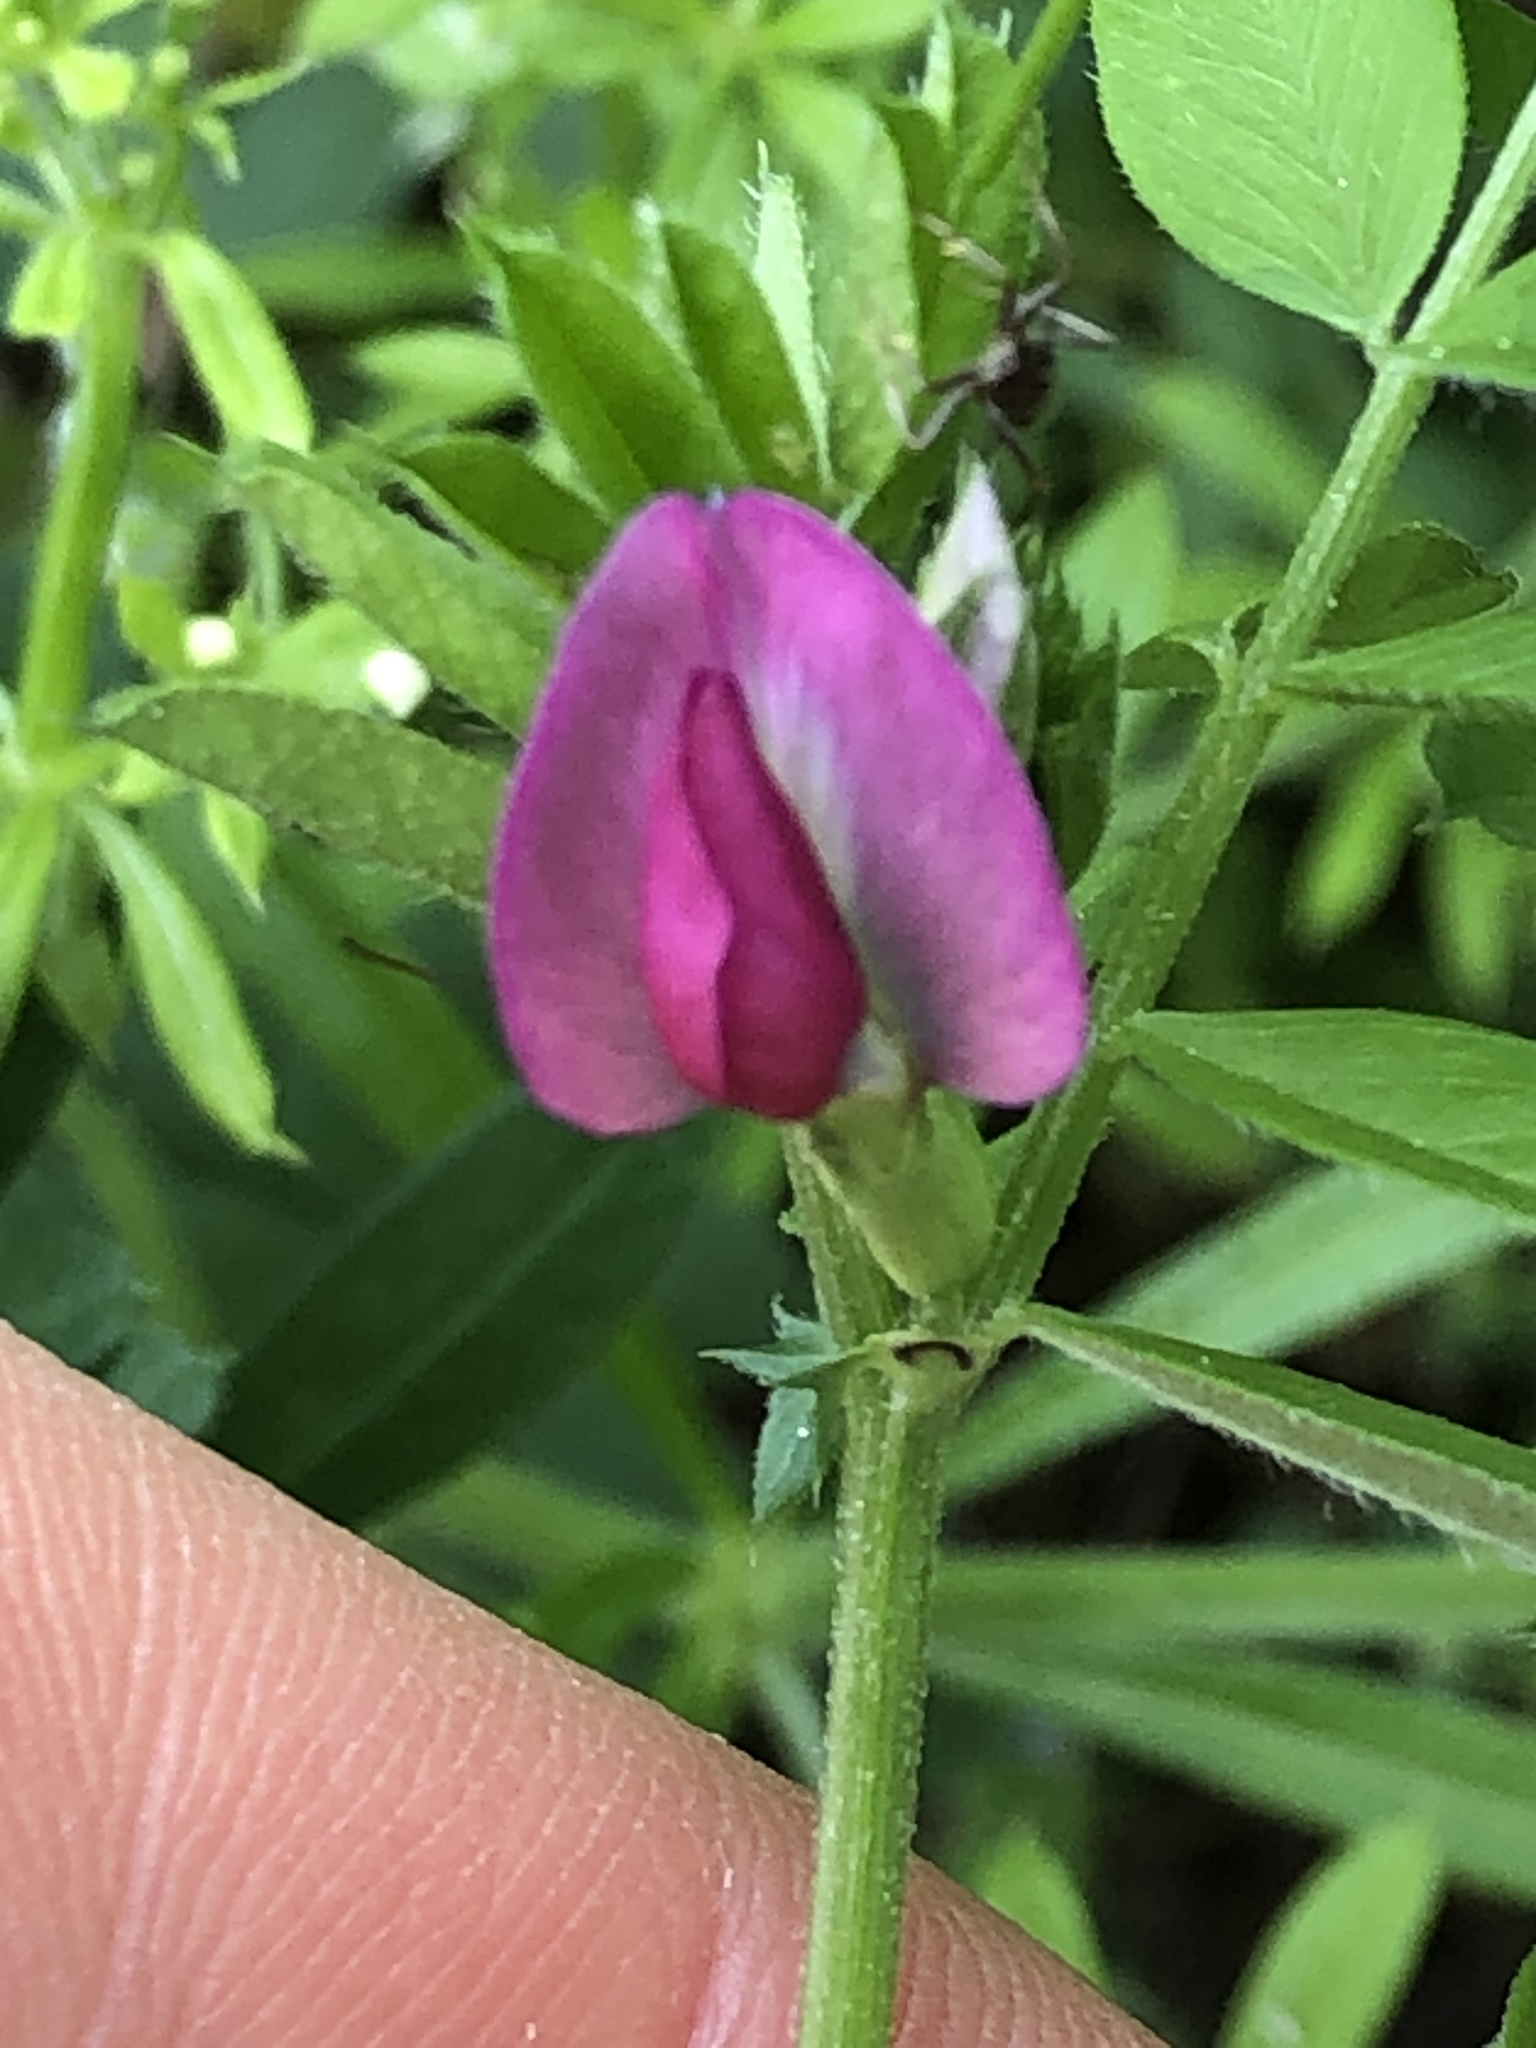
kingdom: Plantae
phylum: Tracheophyta
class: Magnoliopsida
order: Fabales
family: Fabaceae
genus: Vicia
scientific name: Vicia sativa
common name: Garden vetch
